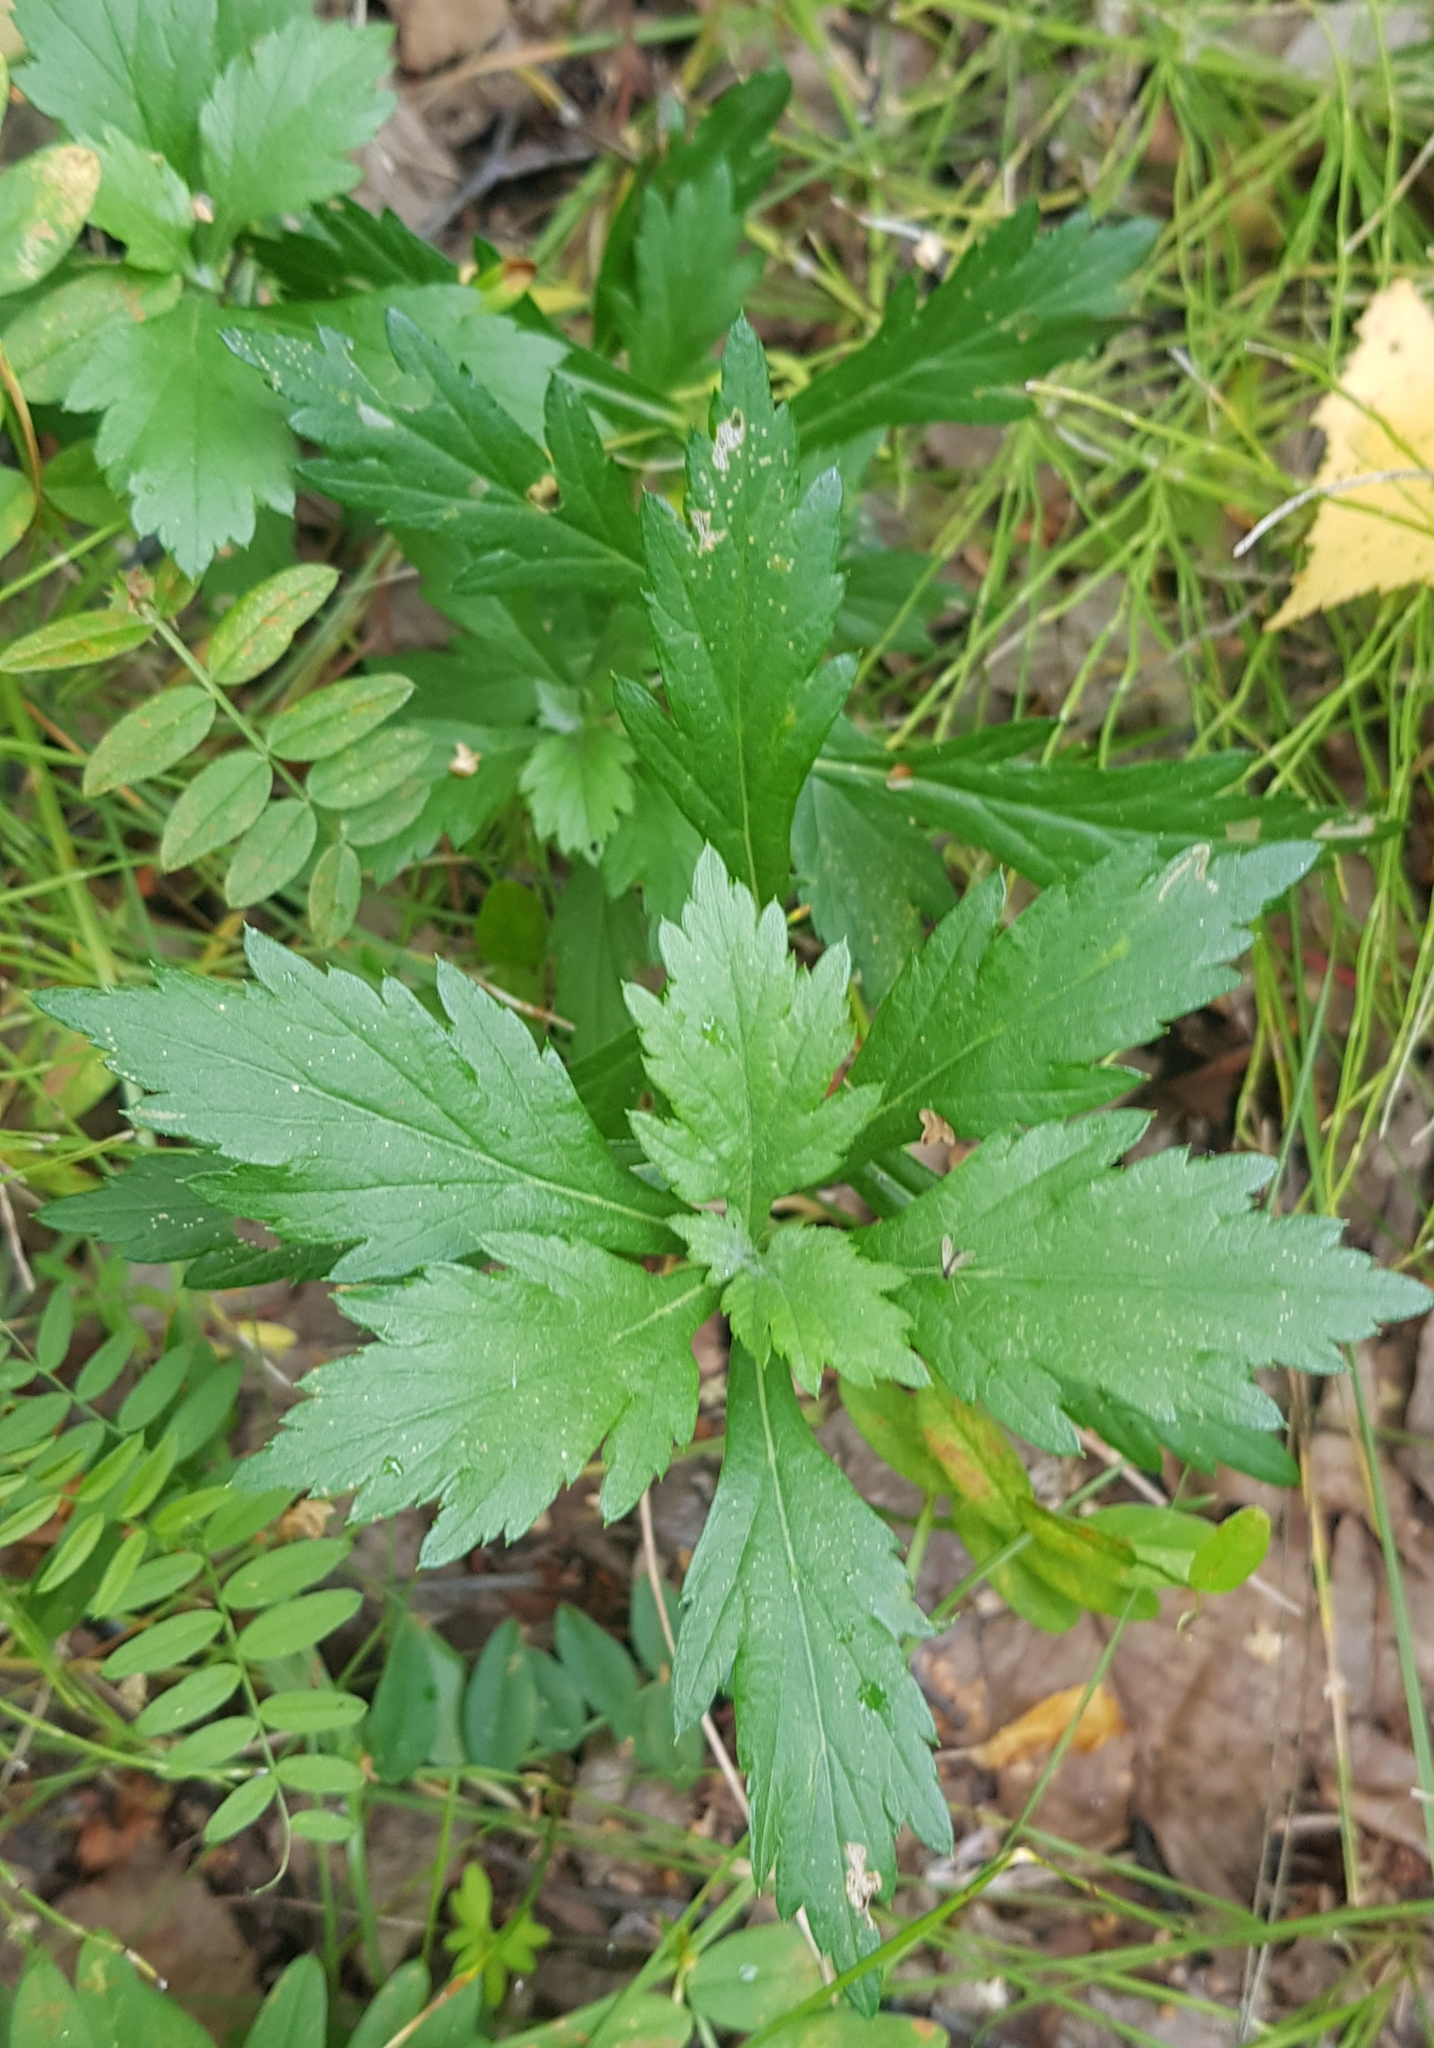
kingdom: Plantae
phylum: Tracheophyta
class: Magnoliopsida
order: Asterales
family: Asteraceae
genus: Artemisia
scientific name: Artemisia integrifolia
